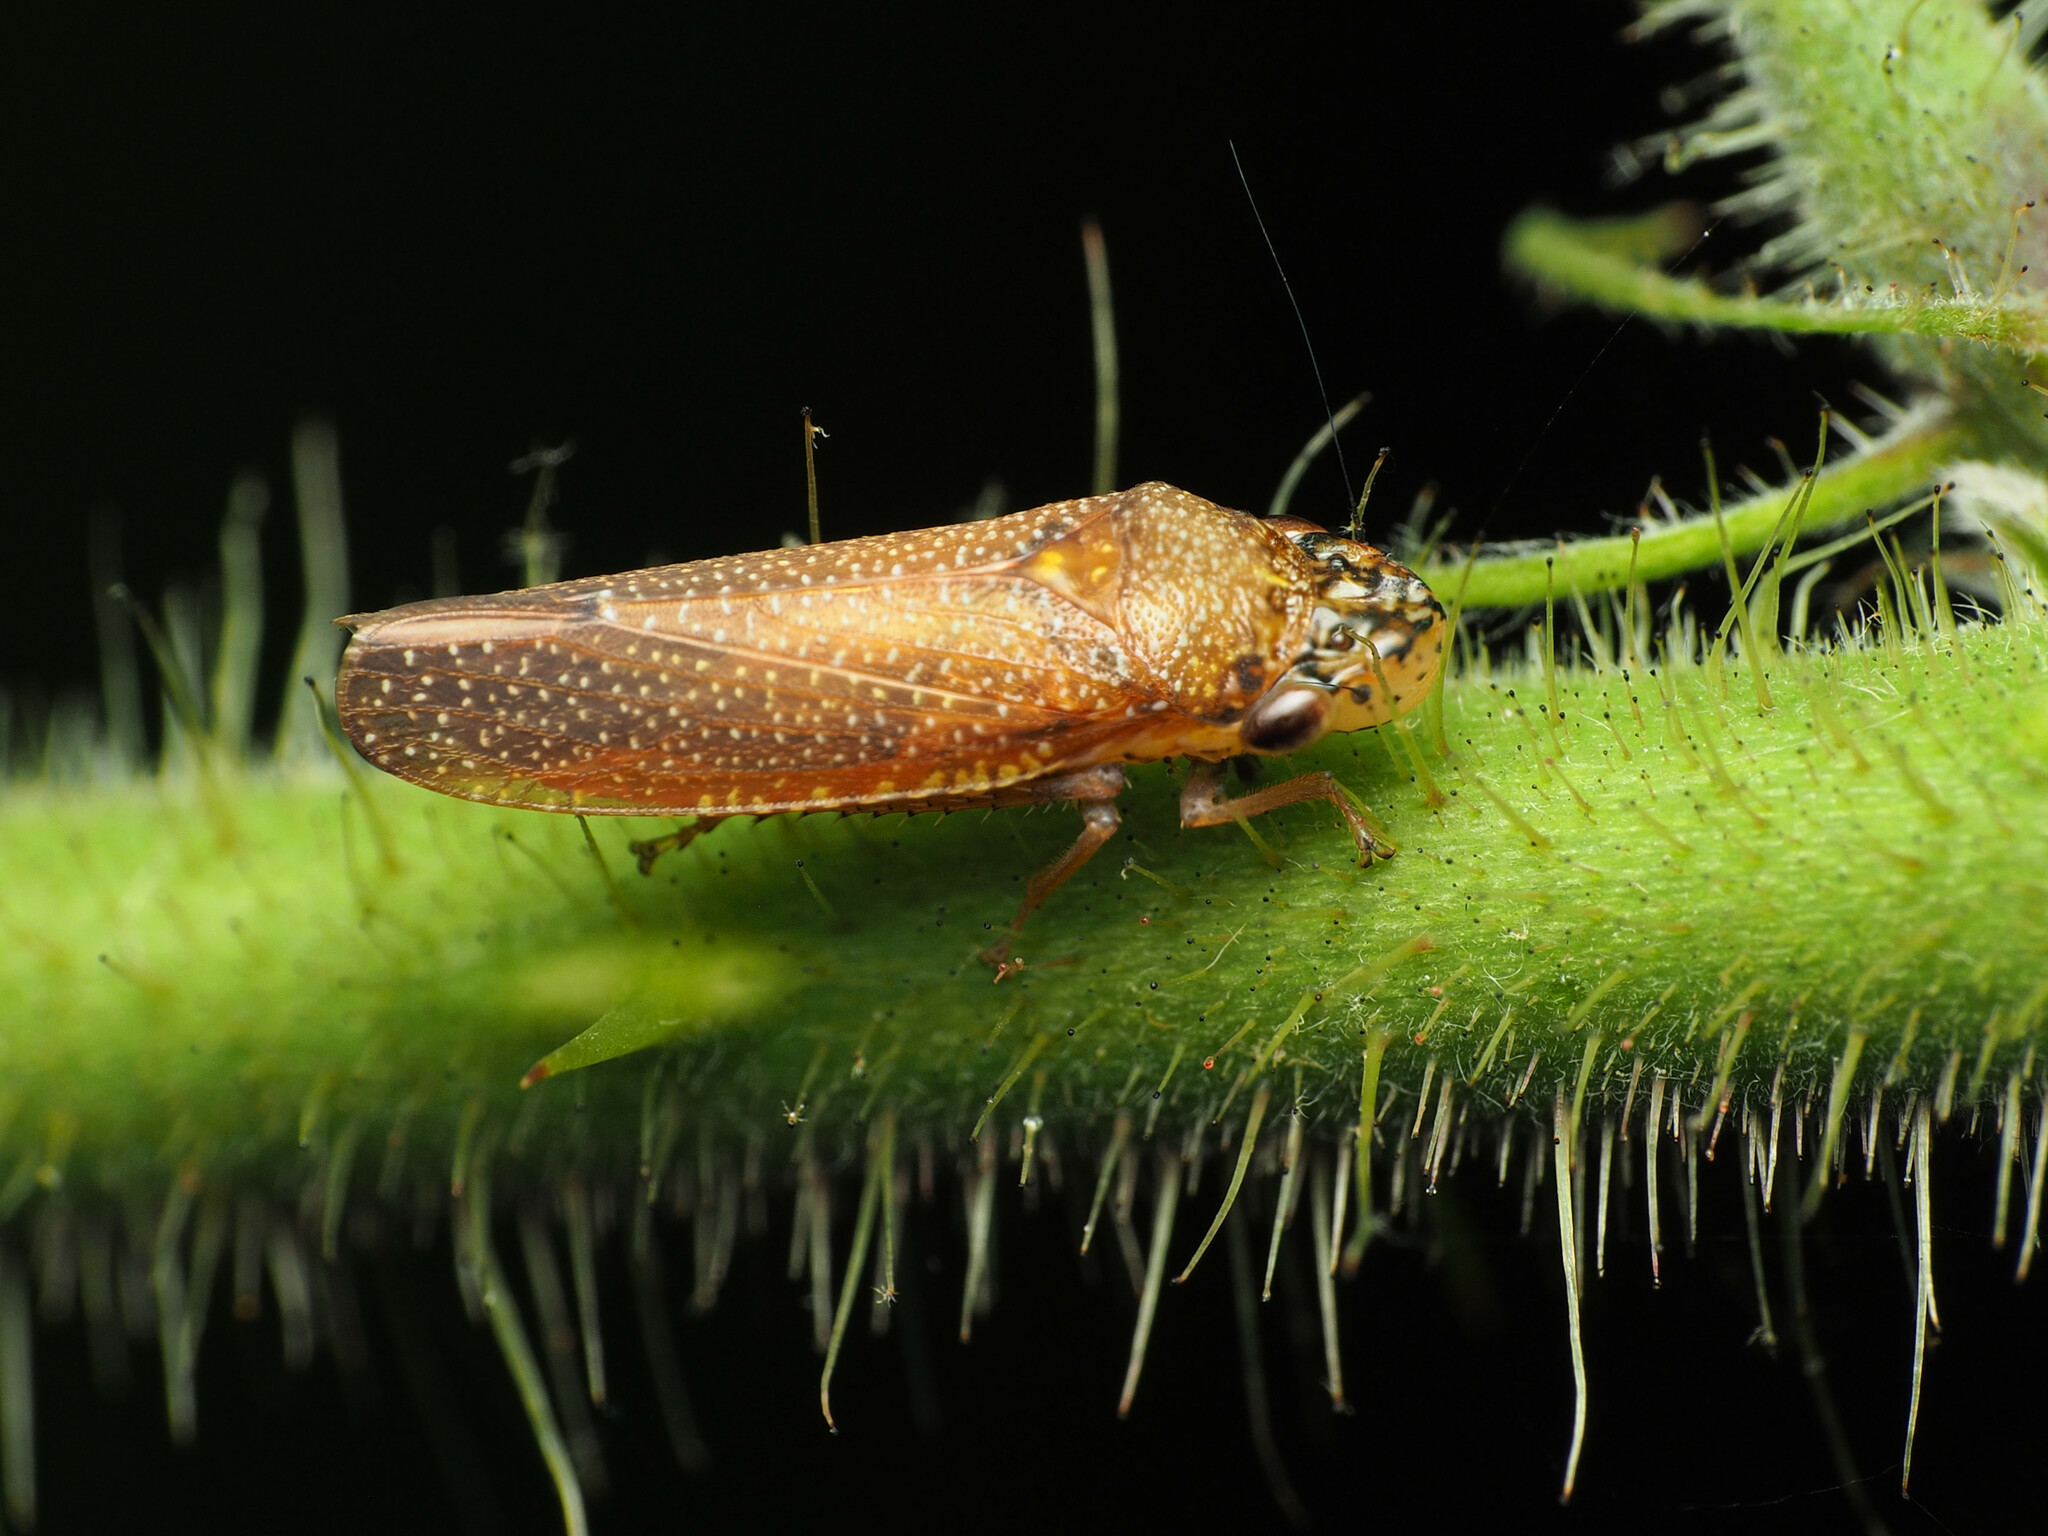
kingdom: Animalia
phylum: Arthropoda
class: Insecta
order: Hemiptera
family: Cicadellidae
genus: Paraulacizes
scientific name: Paraulacizes irrorata
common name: Speckled sharpshooter
